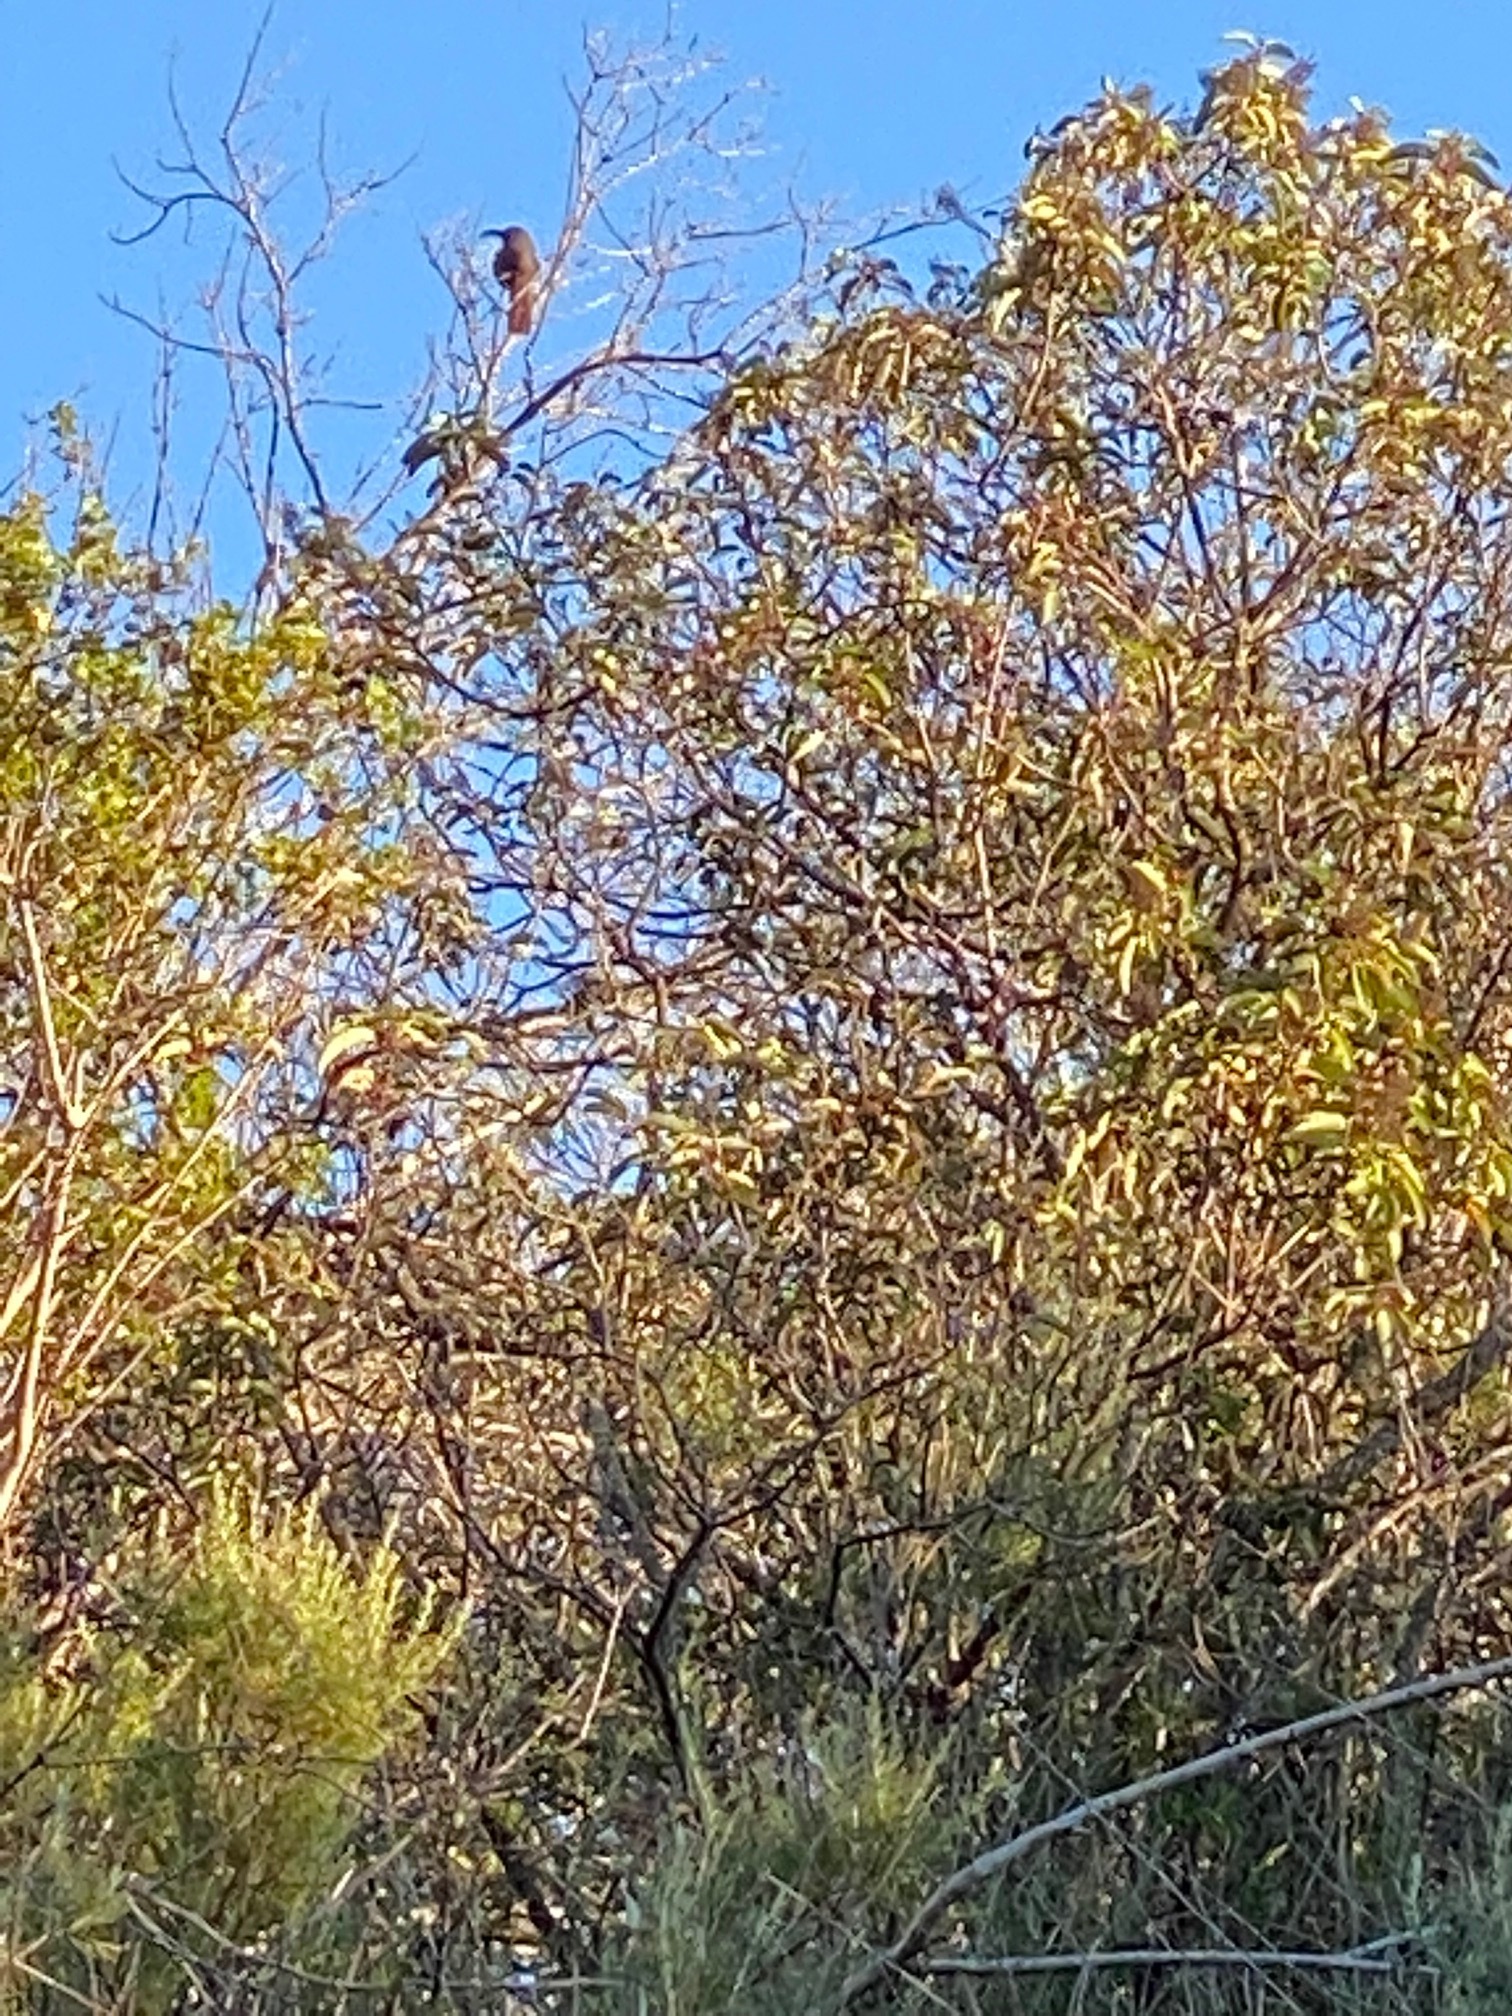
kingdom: Animalia
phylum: Chordata
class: Aves
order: Passeriformes
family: Mimidae
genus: Toxostoma
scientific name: Toxostoma redivivum
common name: California thrasher
